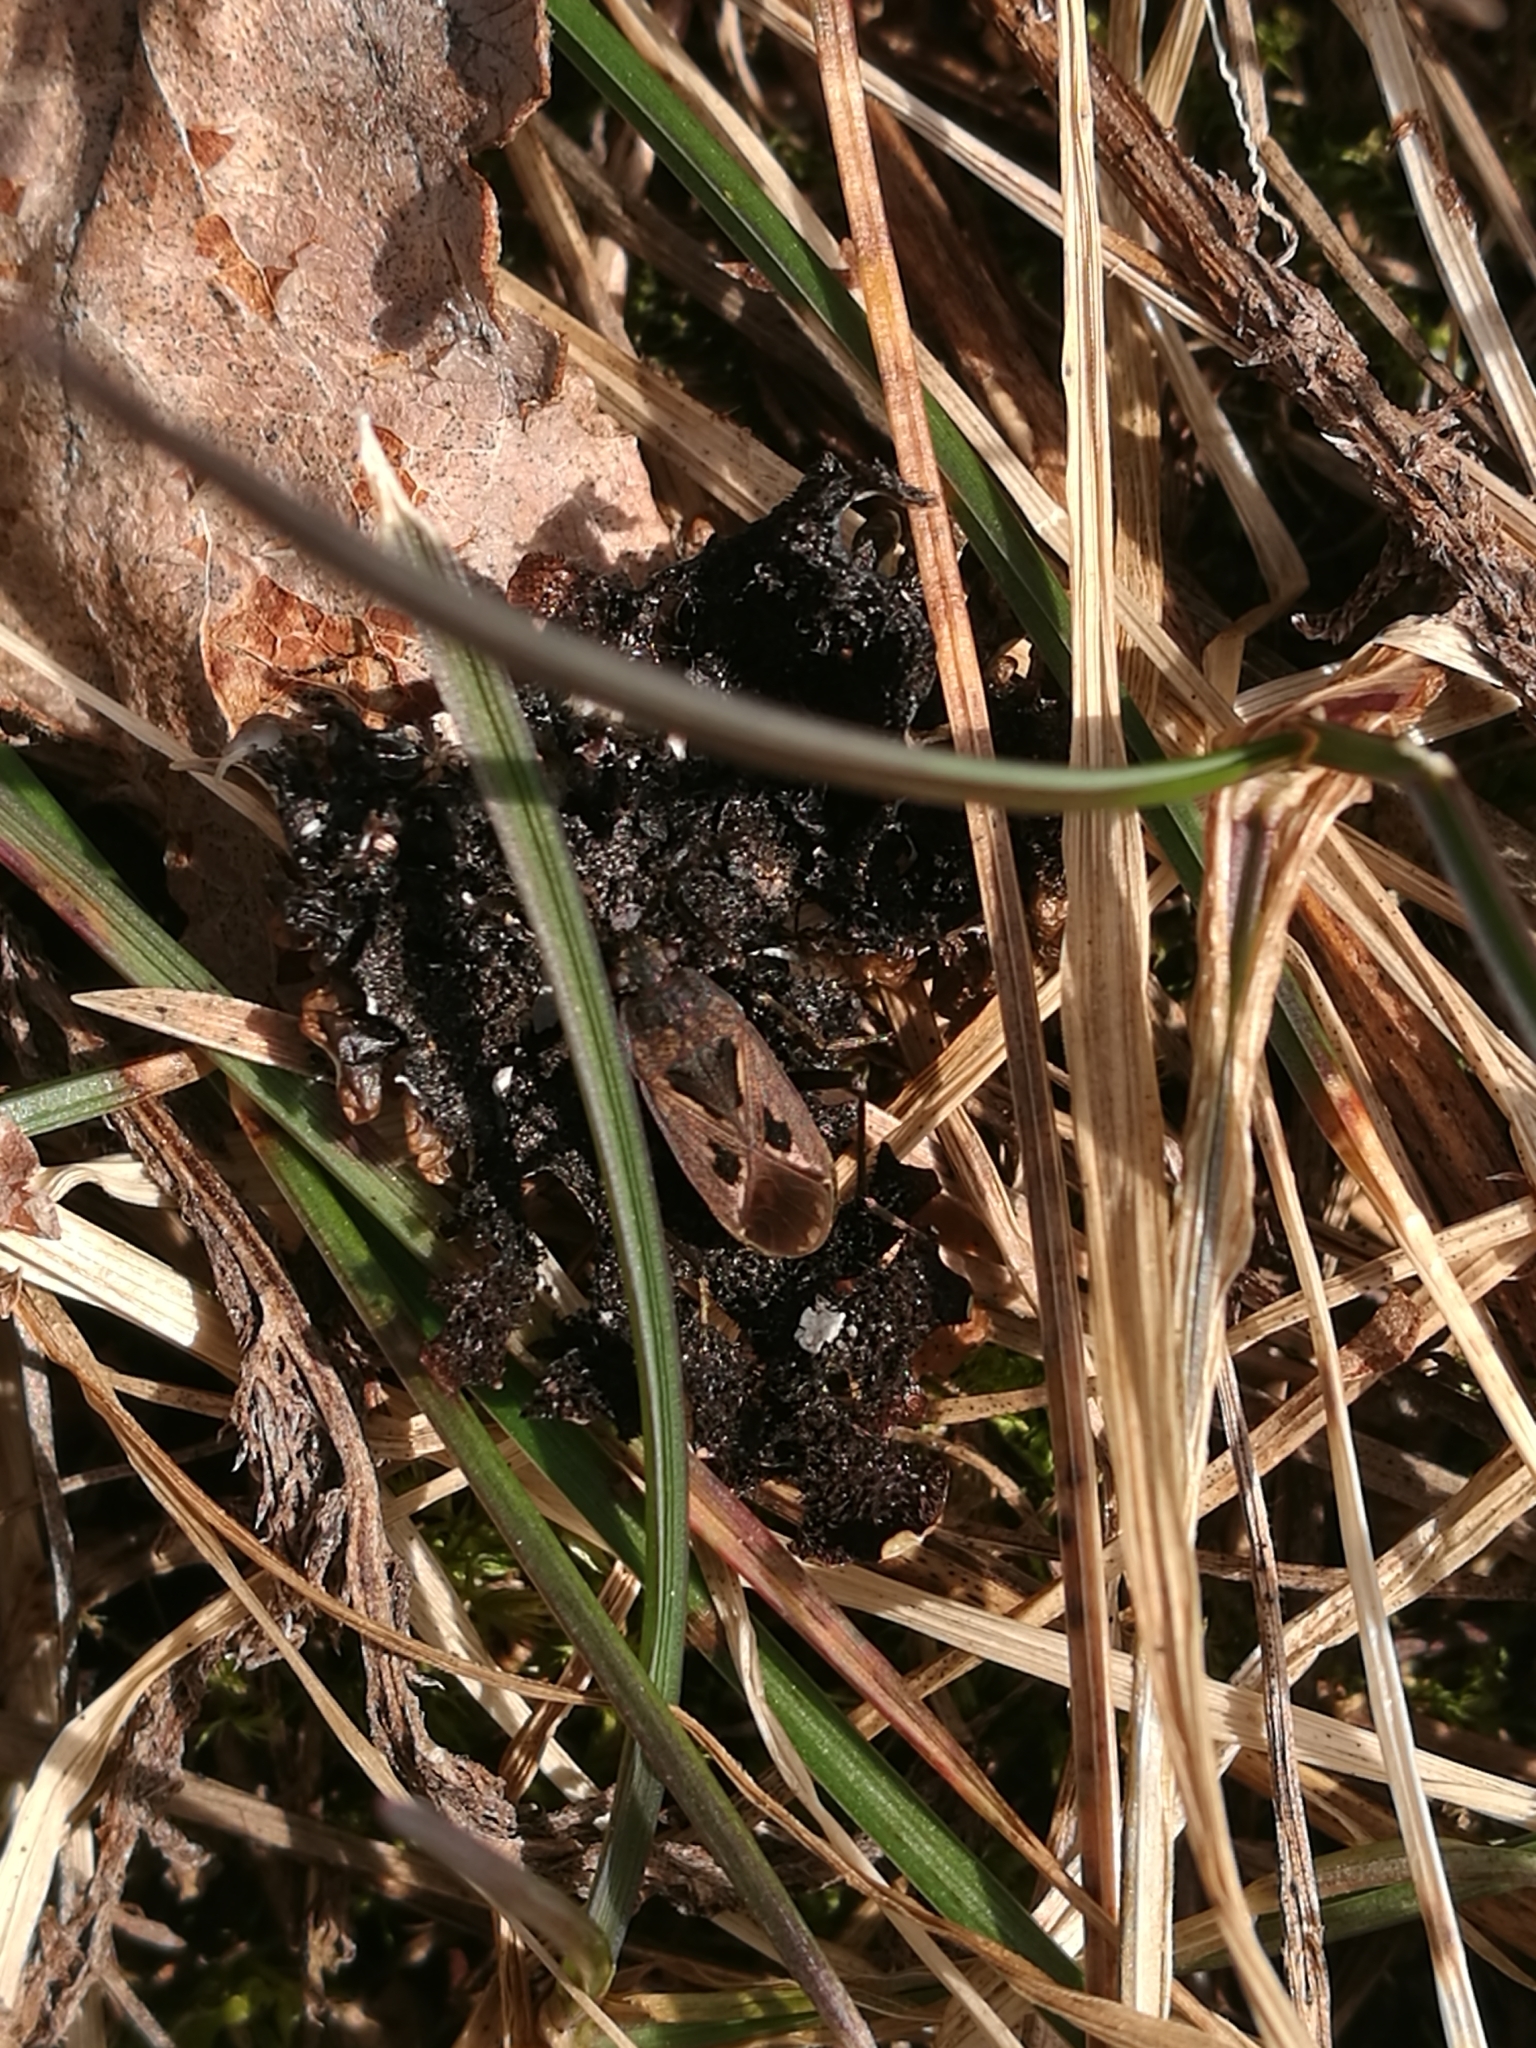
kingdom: Animalia
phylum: Arthropoda
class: Insecta
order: Hemiptera
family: Rhyparochromidae
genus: Rhyparochromus
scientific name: Rhyparochromus pini
